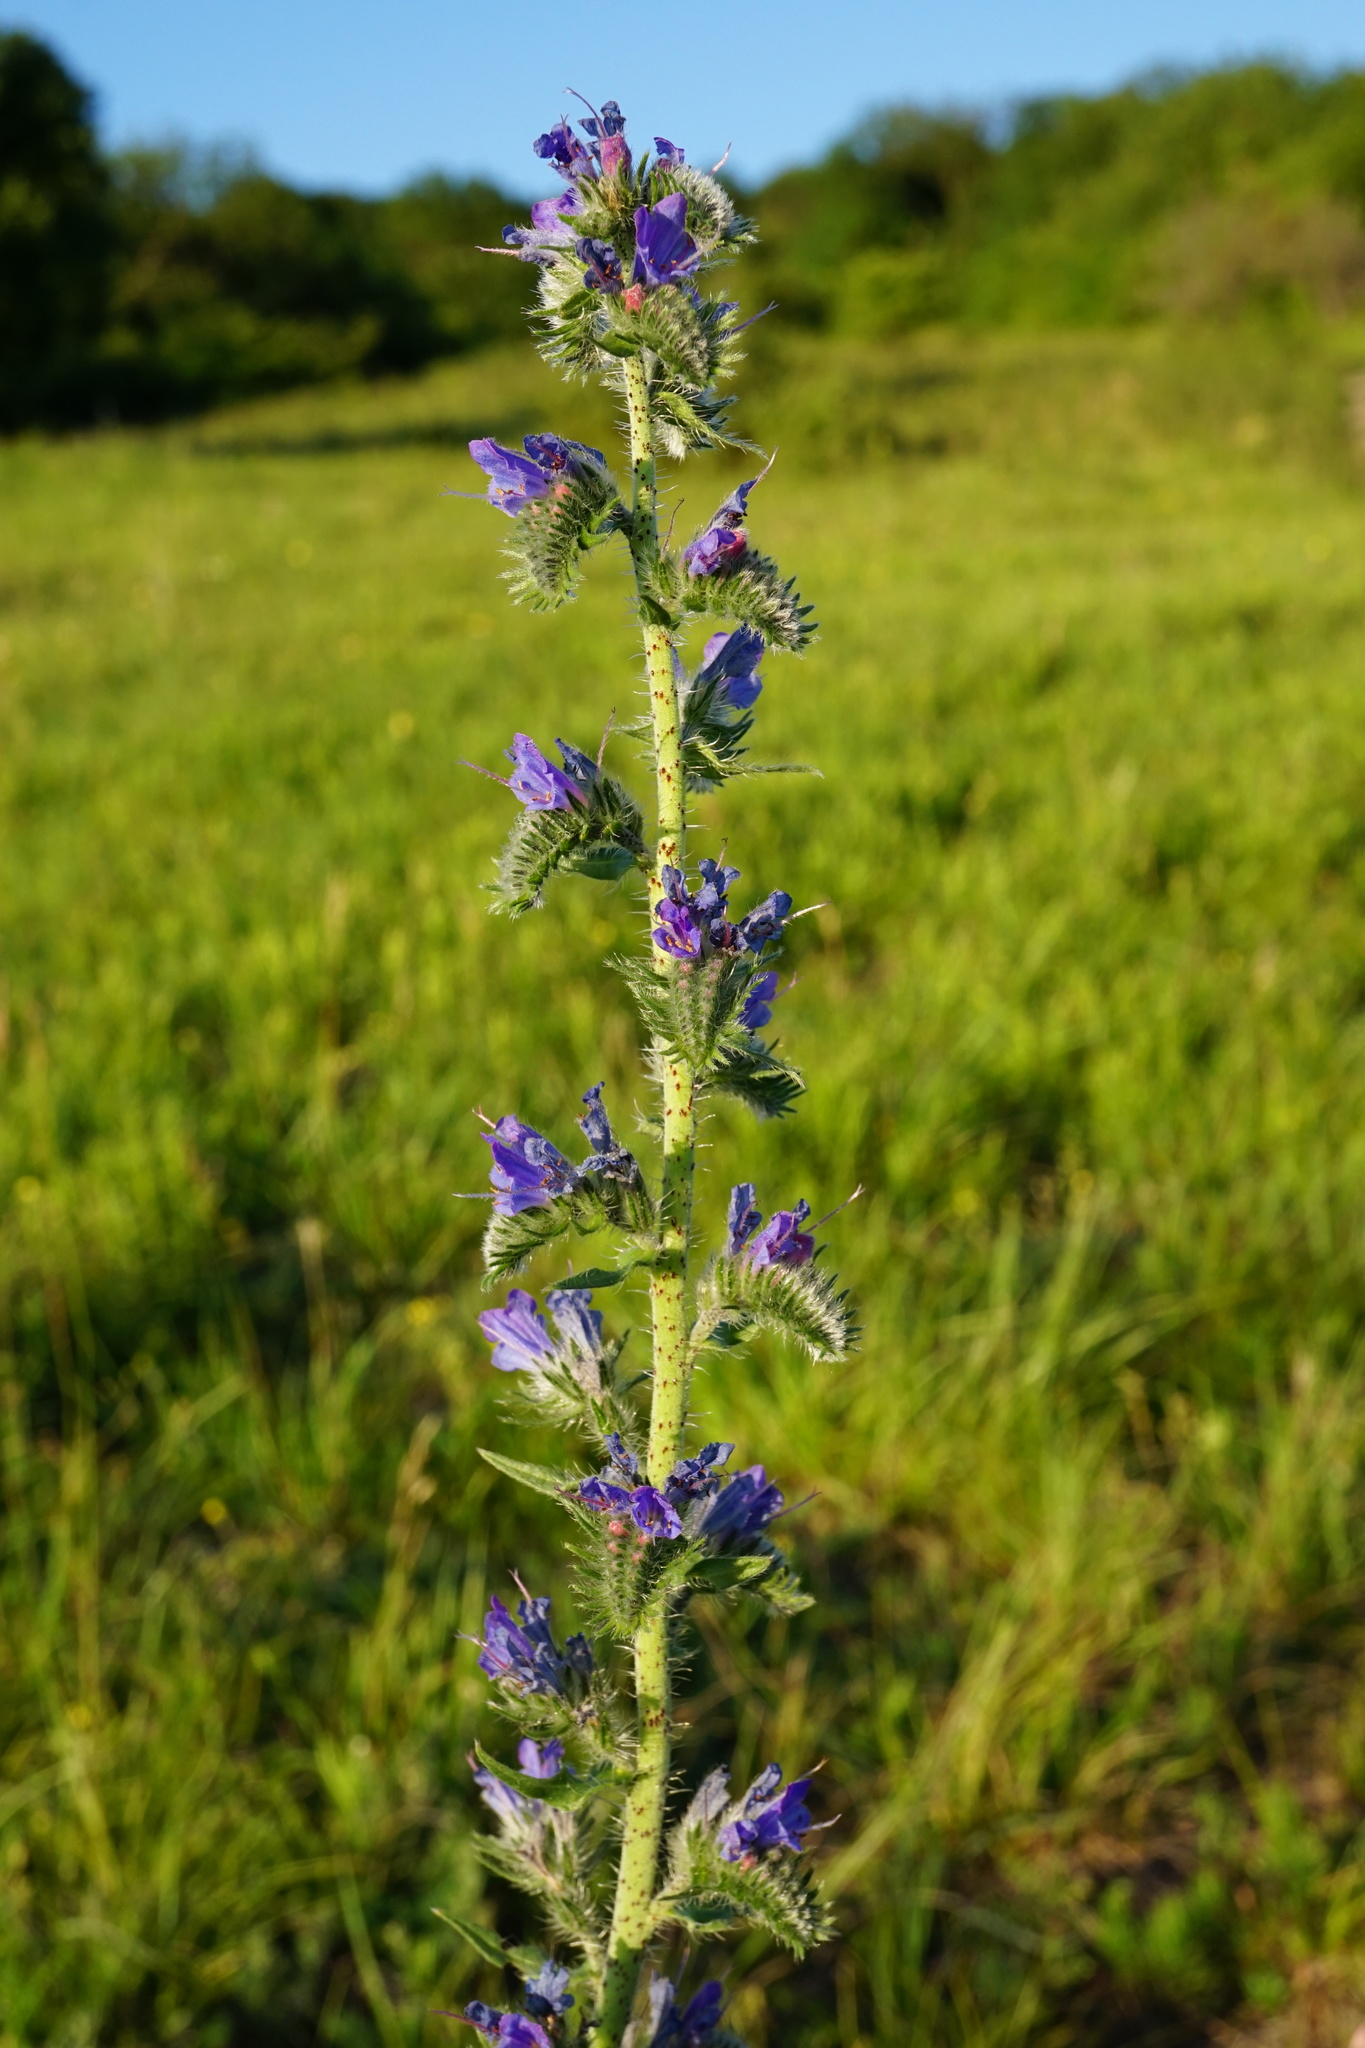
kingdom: Plantae
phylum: Tracheophyta
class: Magnoliopsida
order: Boraginales
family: Boraginaceae
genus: Echium
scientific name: Echium vulgare
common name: Common viper's bugloss
